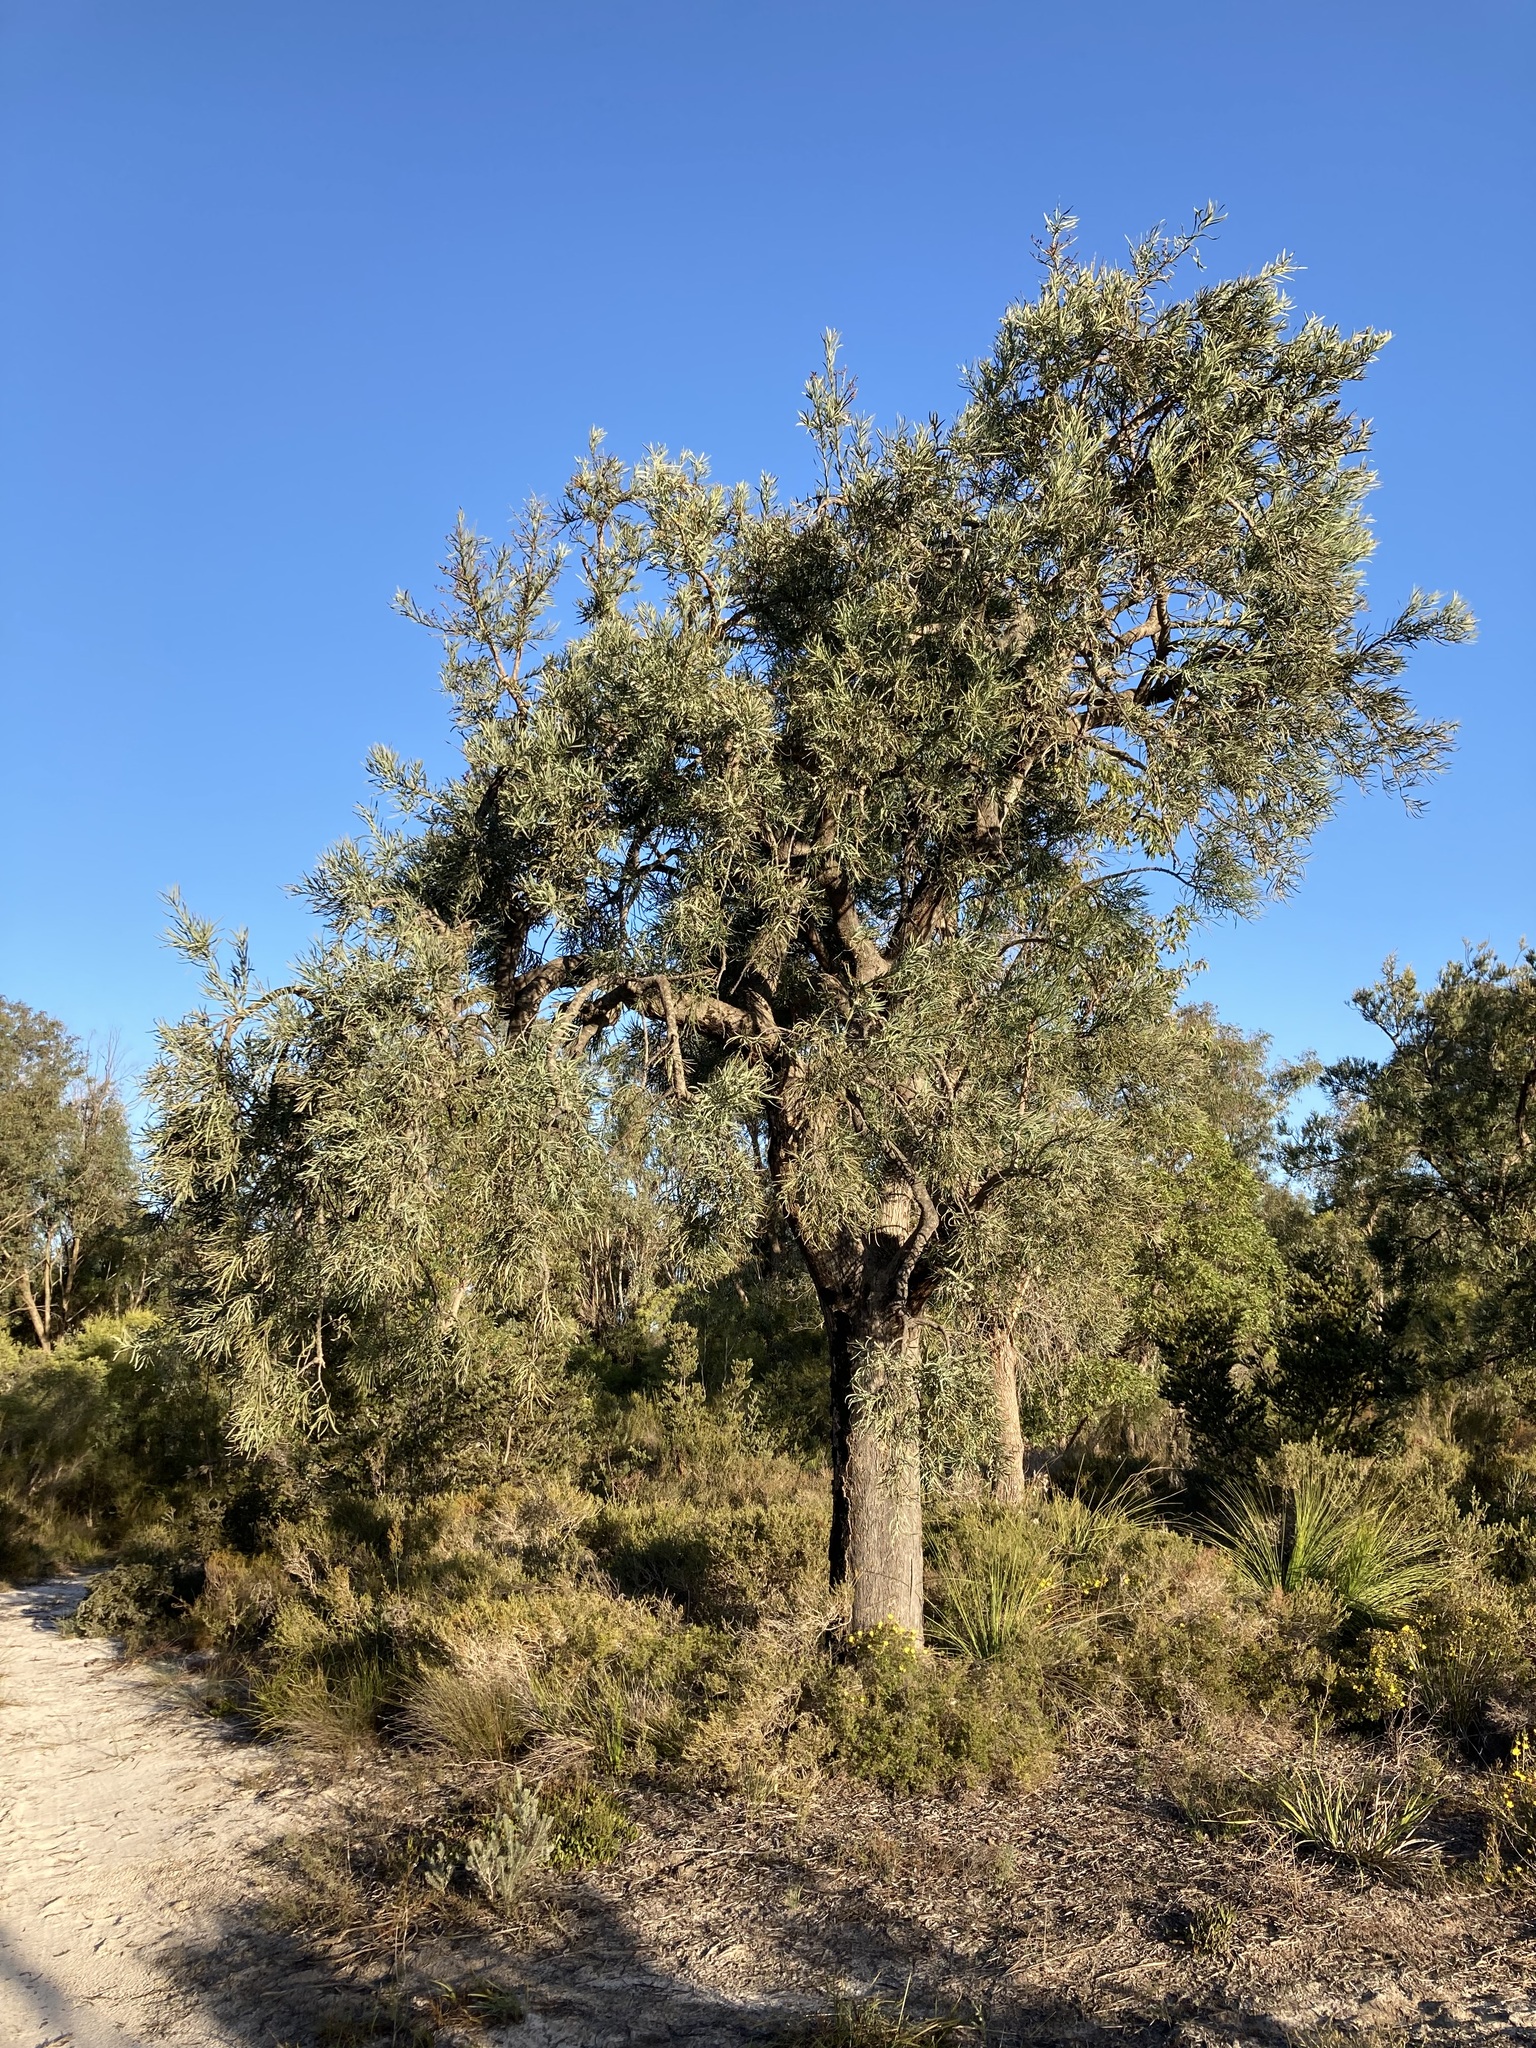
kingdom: Plantae
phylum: Tracheophyta
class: Magnoliopsida
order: Santalales
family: Loranthaceae
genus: Nuytsia
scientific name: Nuytsia floribunda
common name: Western australian christmastree
